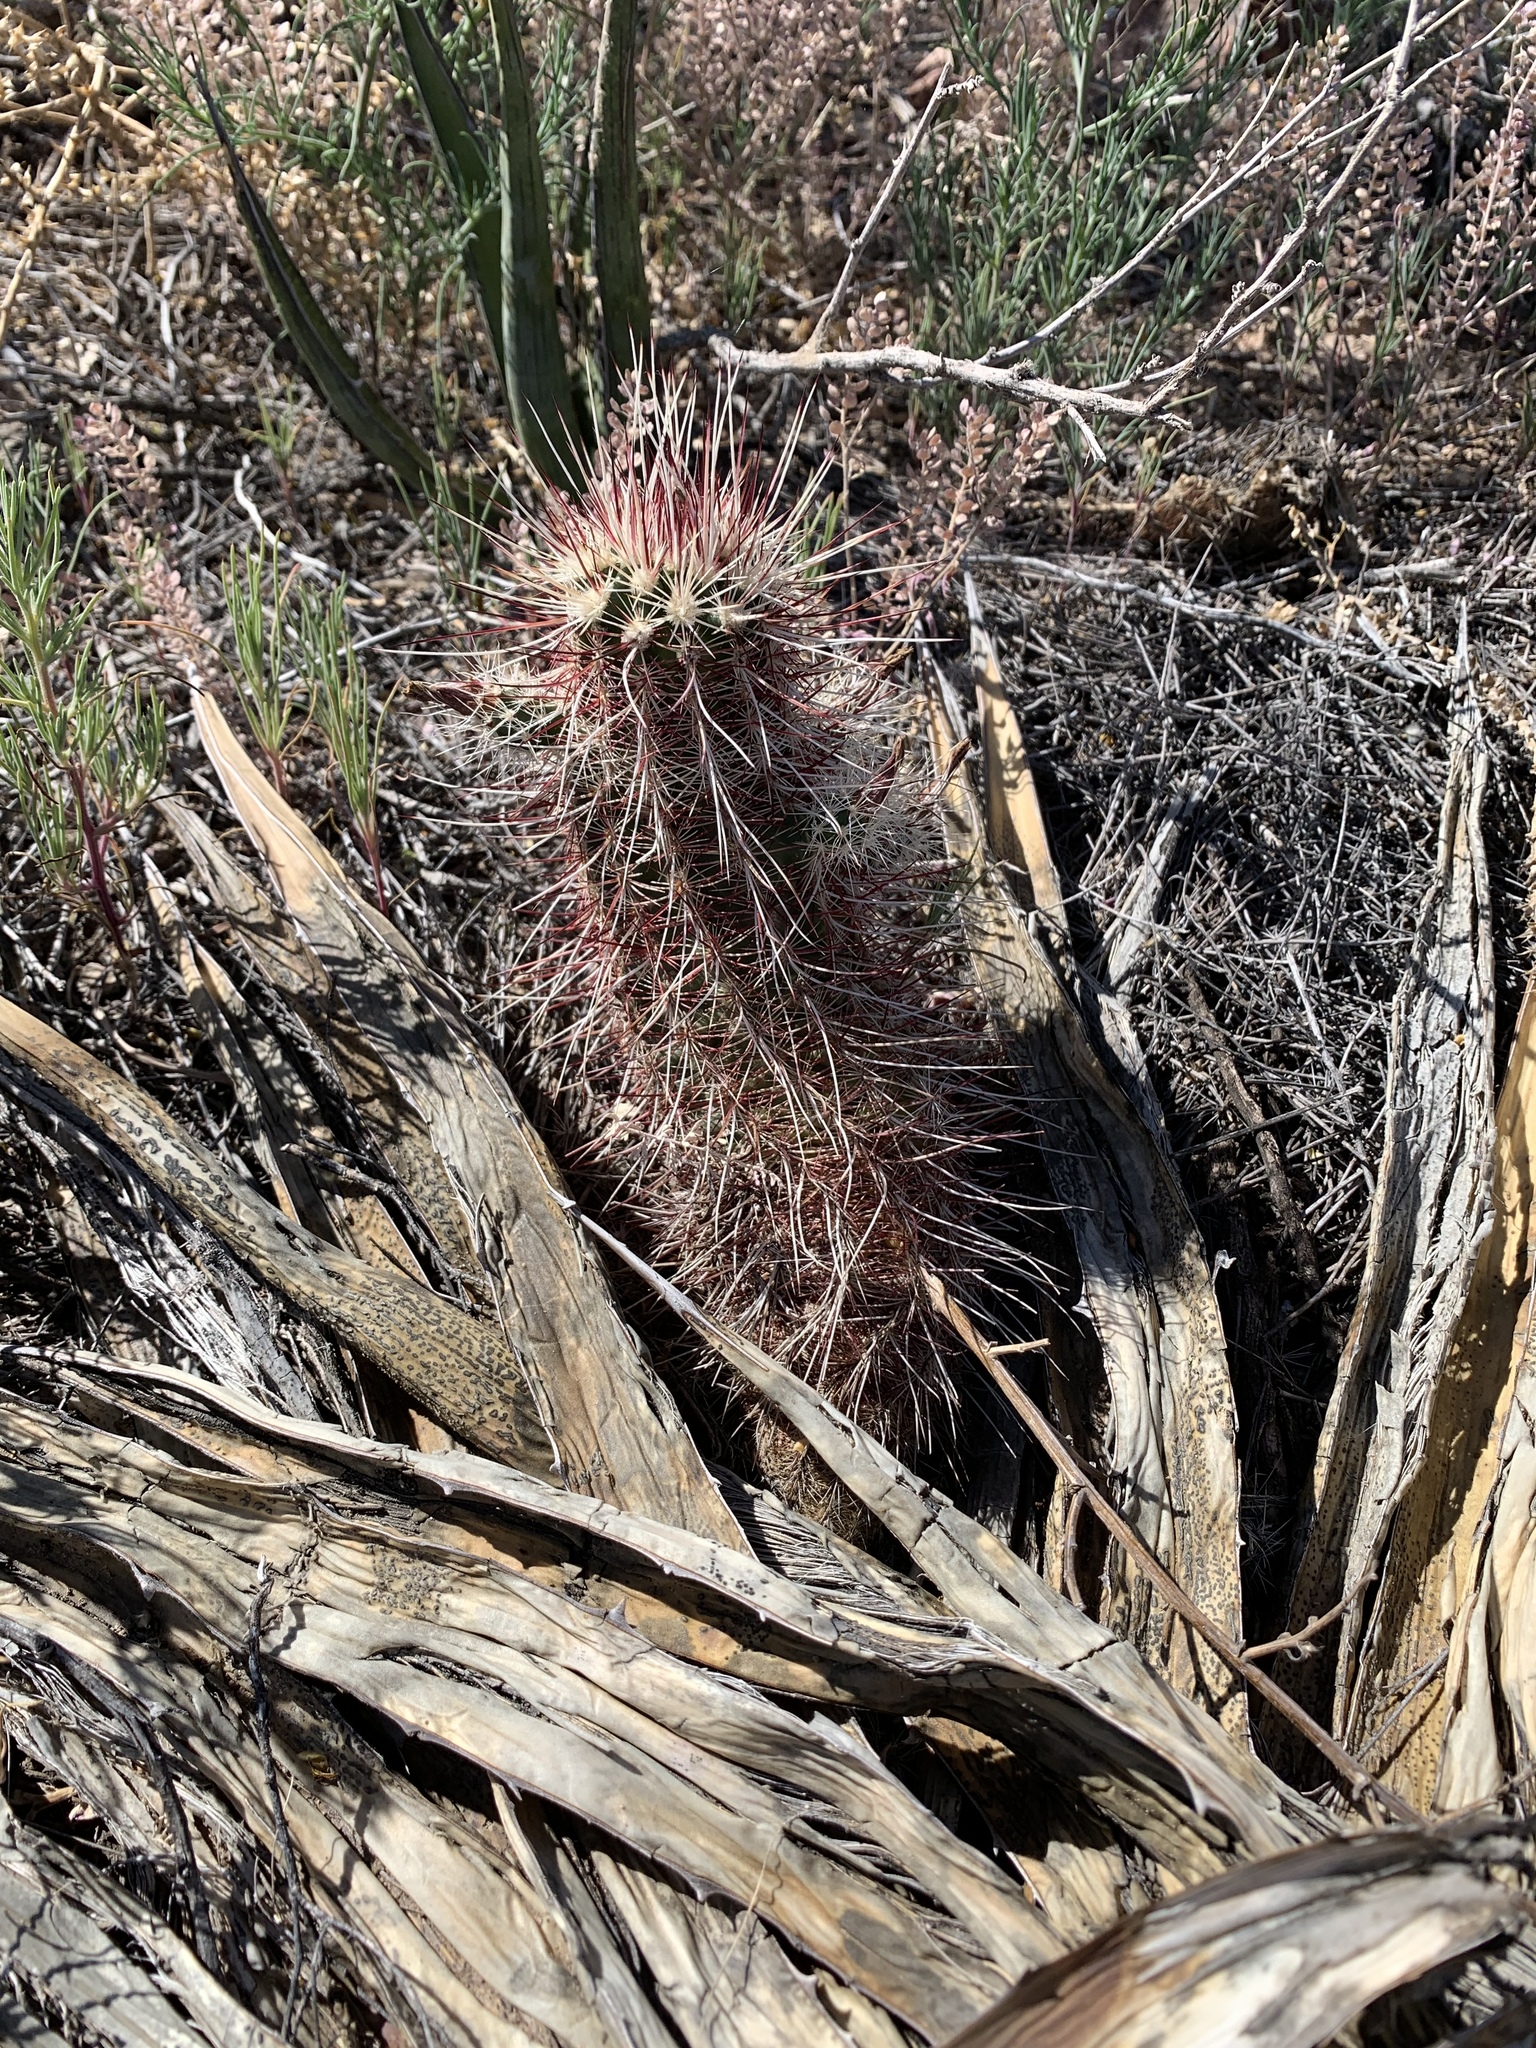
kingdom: Plantae
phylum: Tracheophyta
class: Magnoliopsida
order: Caryophyllales
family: Cactaceae
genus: Echinocereus
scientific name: Echinocereus viridiflorus
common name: Nylon hedgehog cactus
